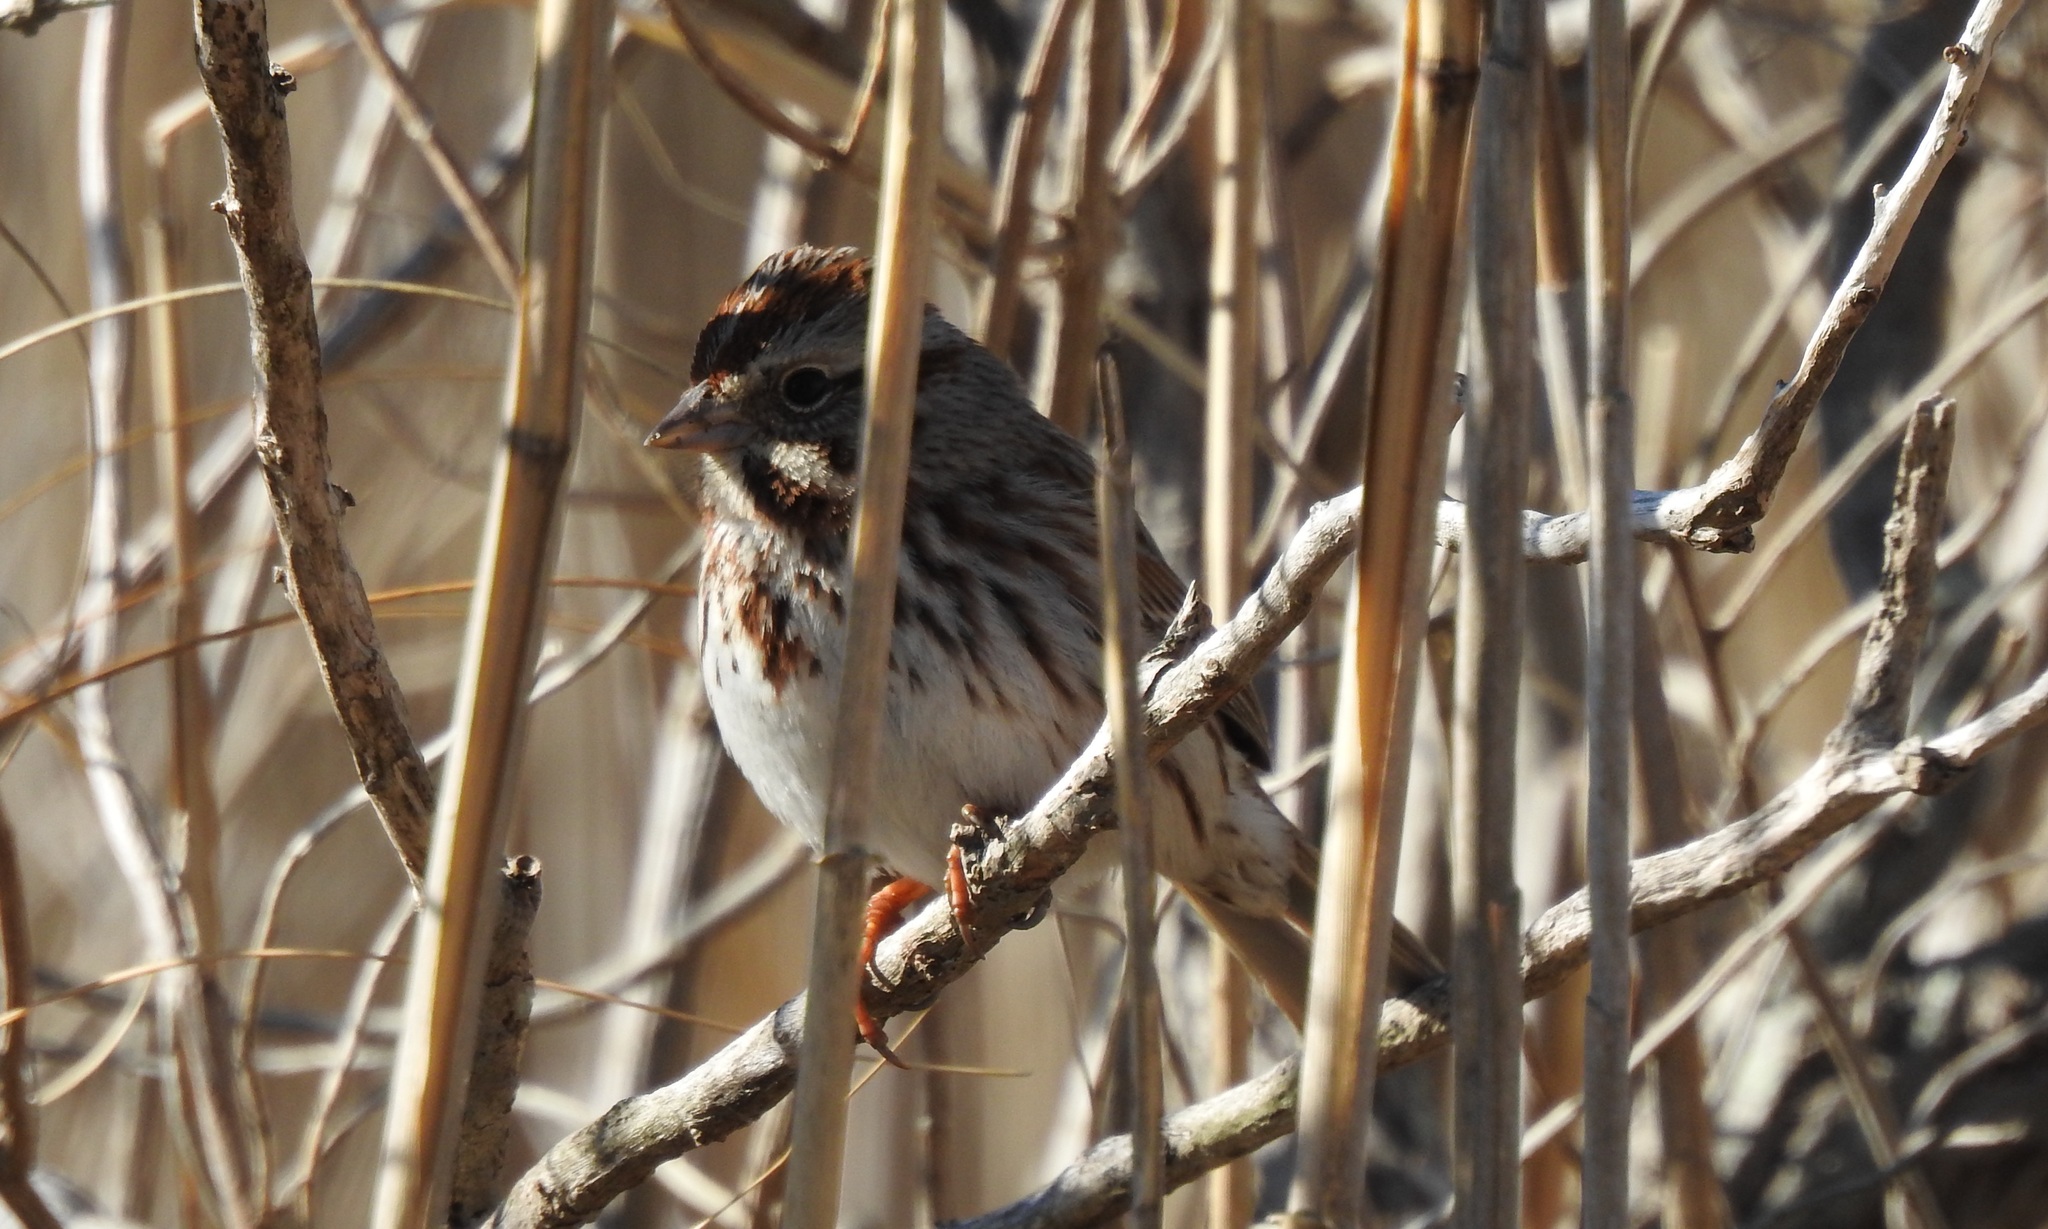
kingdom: Animalia
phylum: Chordata
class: Aves
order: Passeriformes
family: Passerellidae
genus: Melospiza
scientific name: Melospiza melodia
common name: Song sparrow
